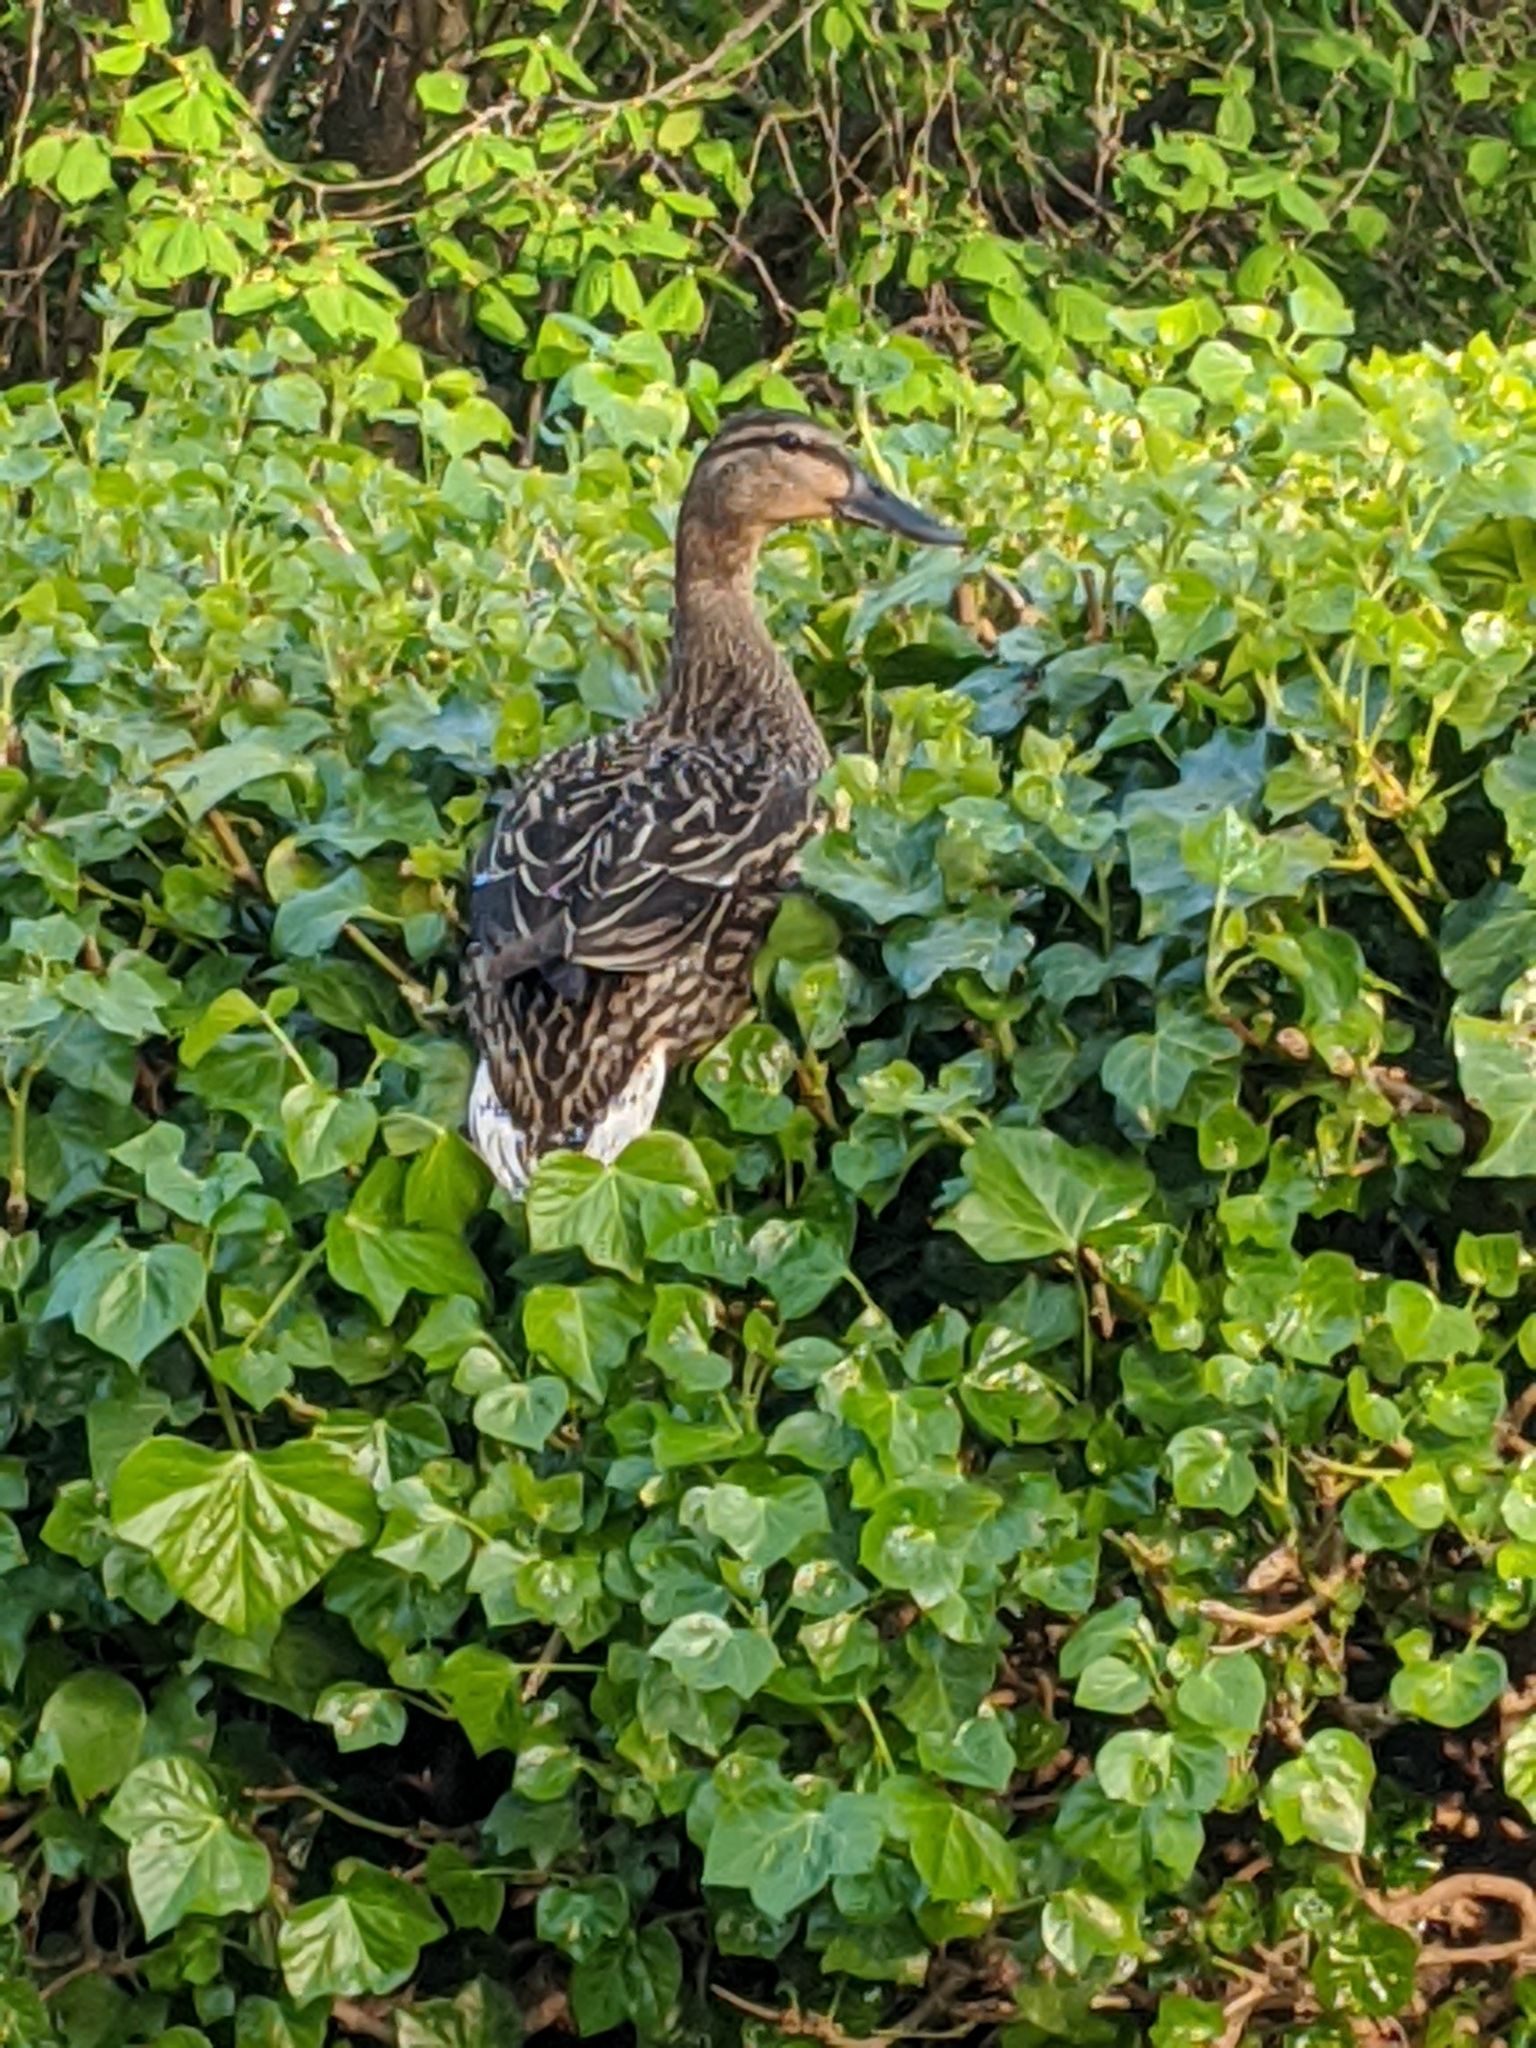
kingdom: Animalia
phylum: Chordata
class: Aves
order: Anseriformes
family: Anatidae
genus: Anas
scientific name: Anas platyrhynchos
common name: Mallard
